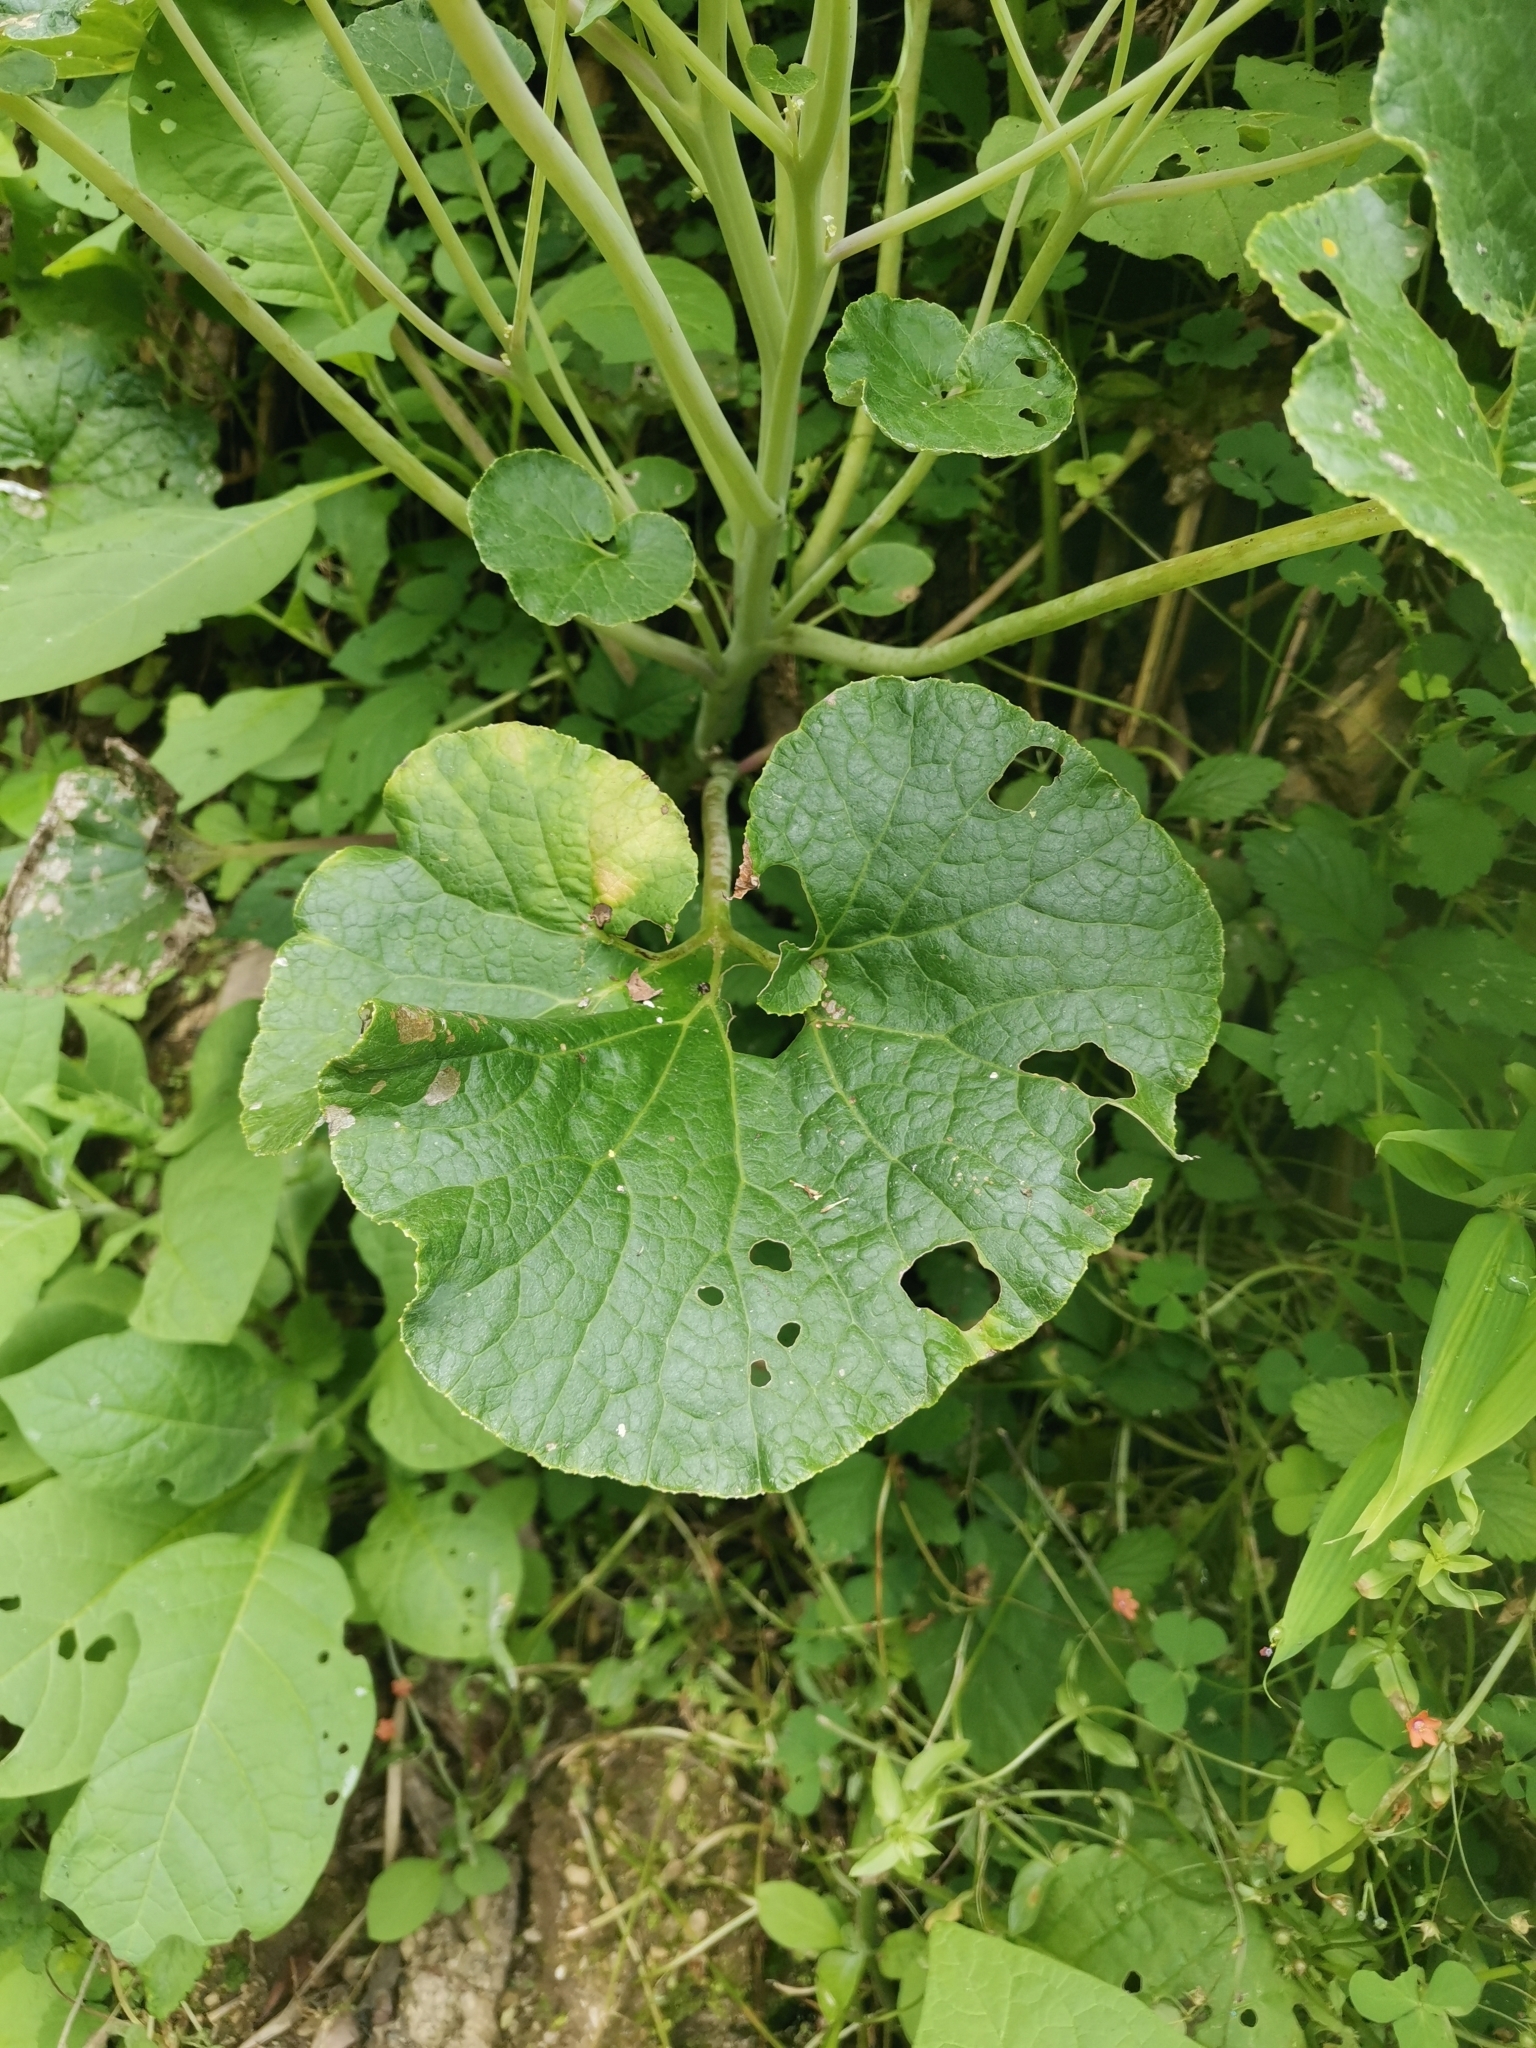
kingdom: Plantae
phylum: Tracheophyta
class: Magnoliopsida
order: Asterales
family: Asteraceae
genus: Pericallis
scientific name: Pericallis malvifolia
